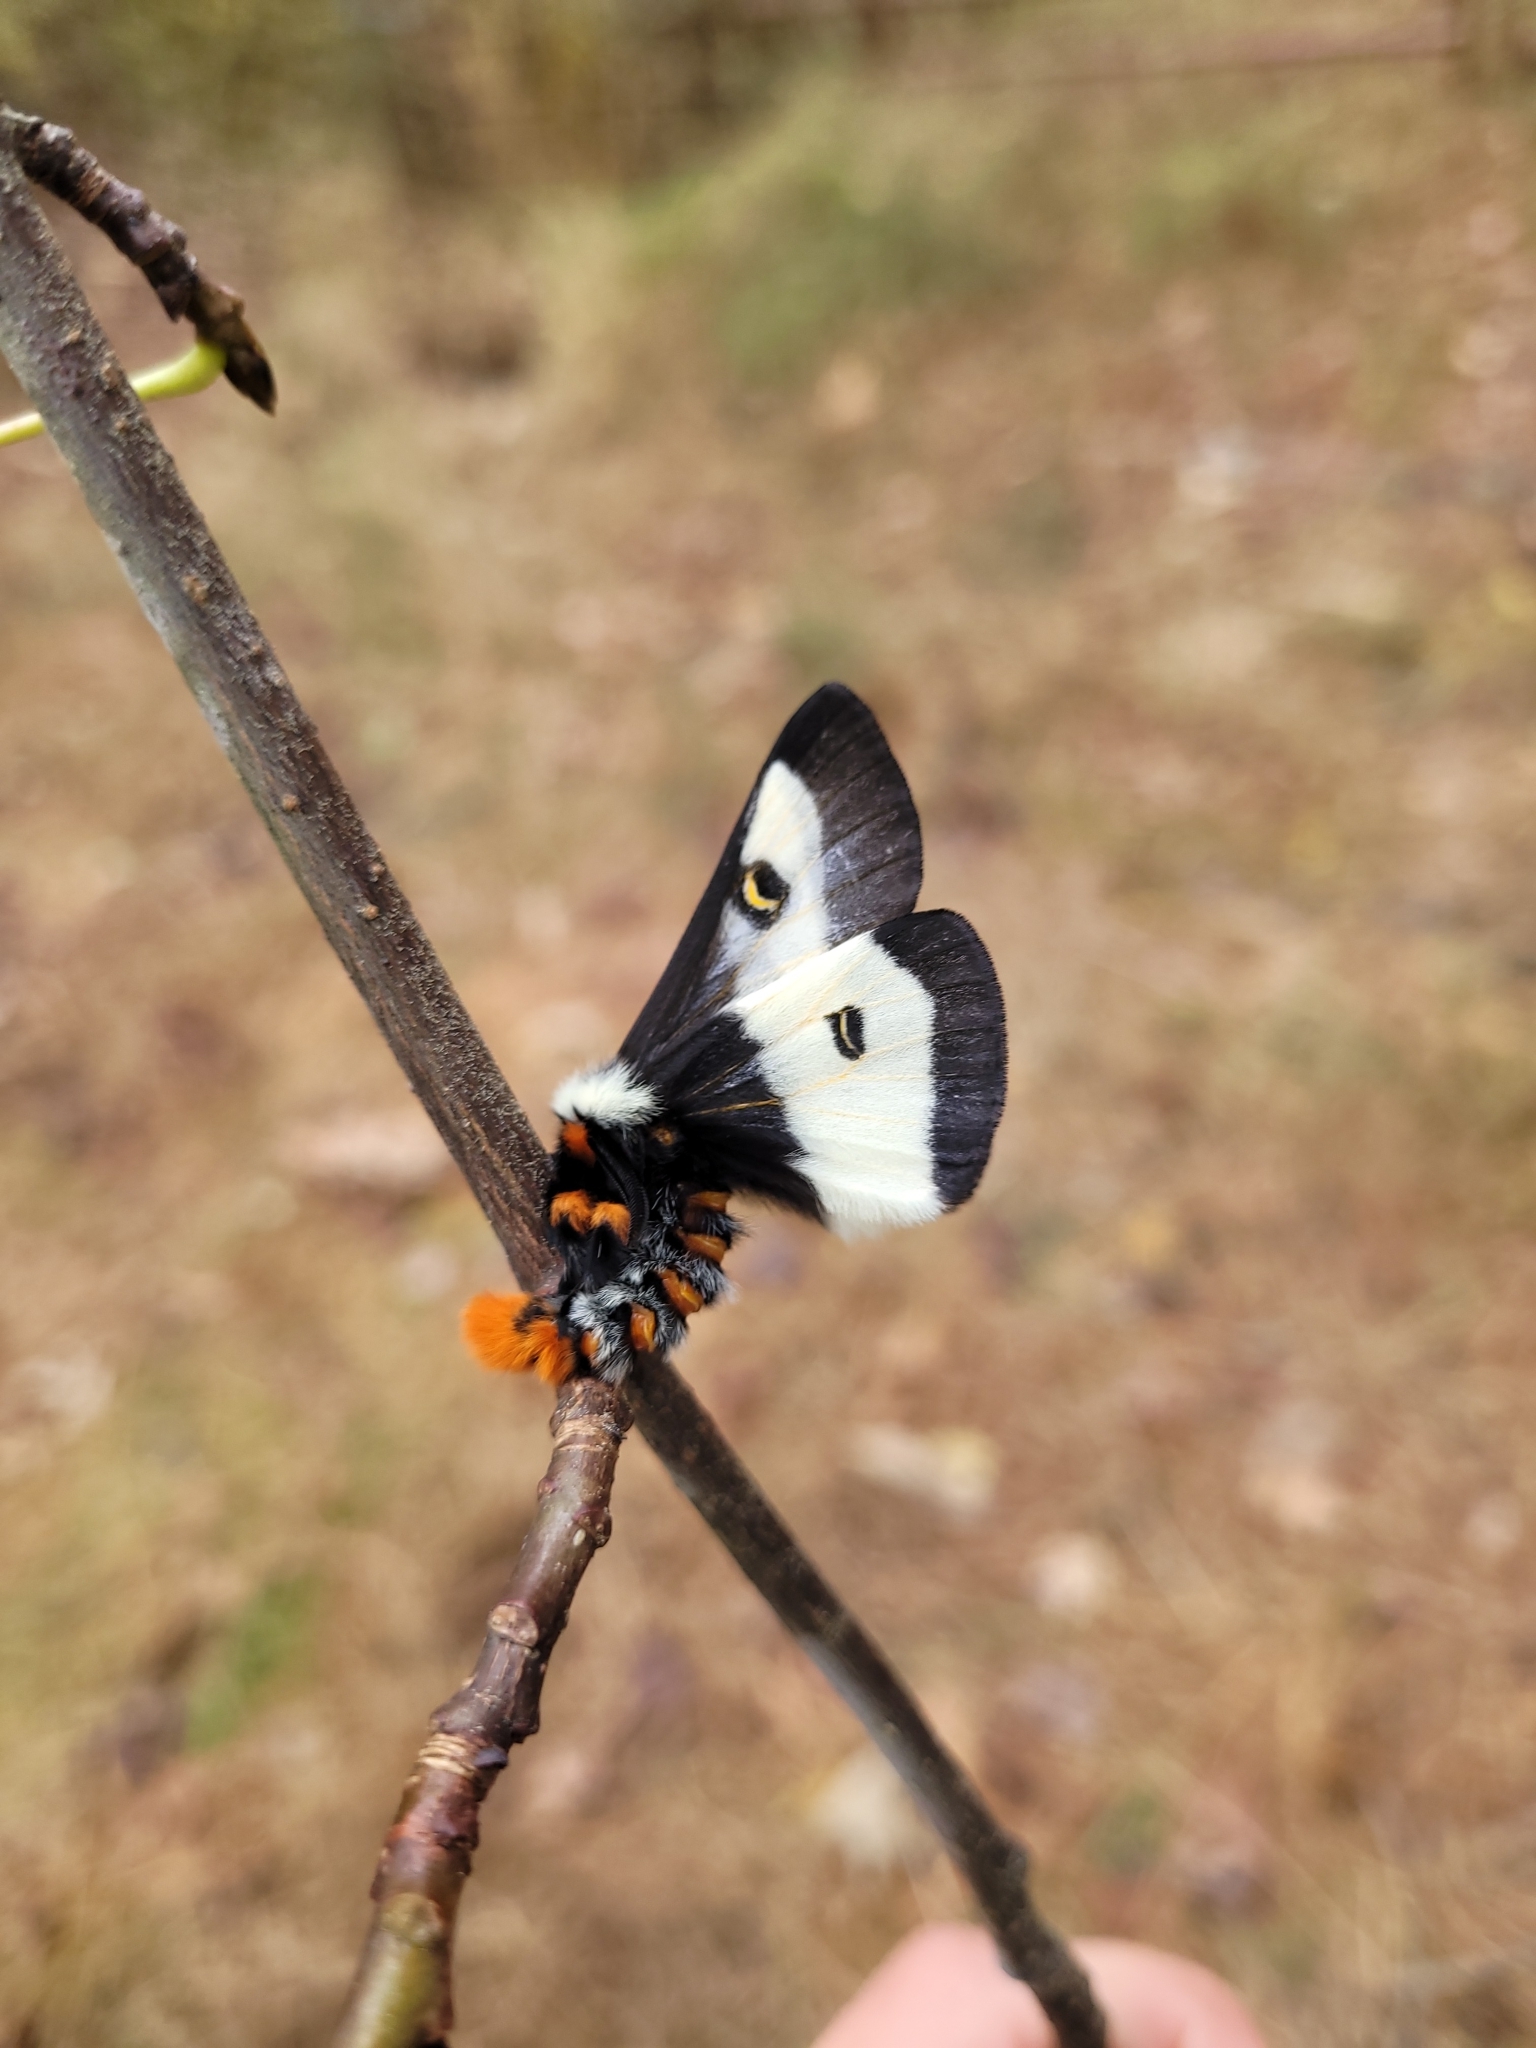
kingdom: Animalia
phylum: Arthropoda
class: Insecta
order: Lepidoptera
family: Saturniidae
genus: Hemileuca
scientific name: Hemileuca maia
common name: Eastern buckmoth
